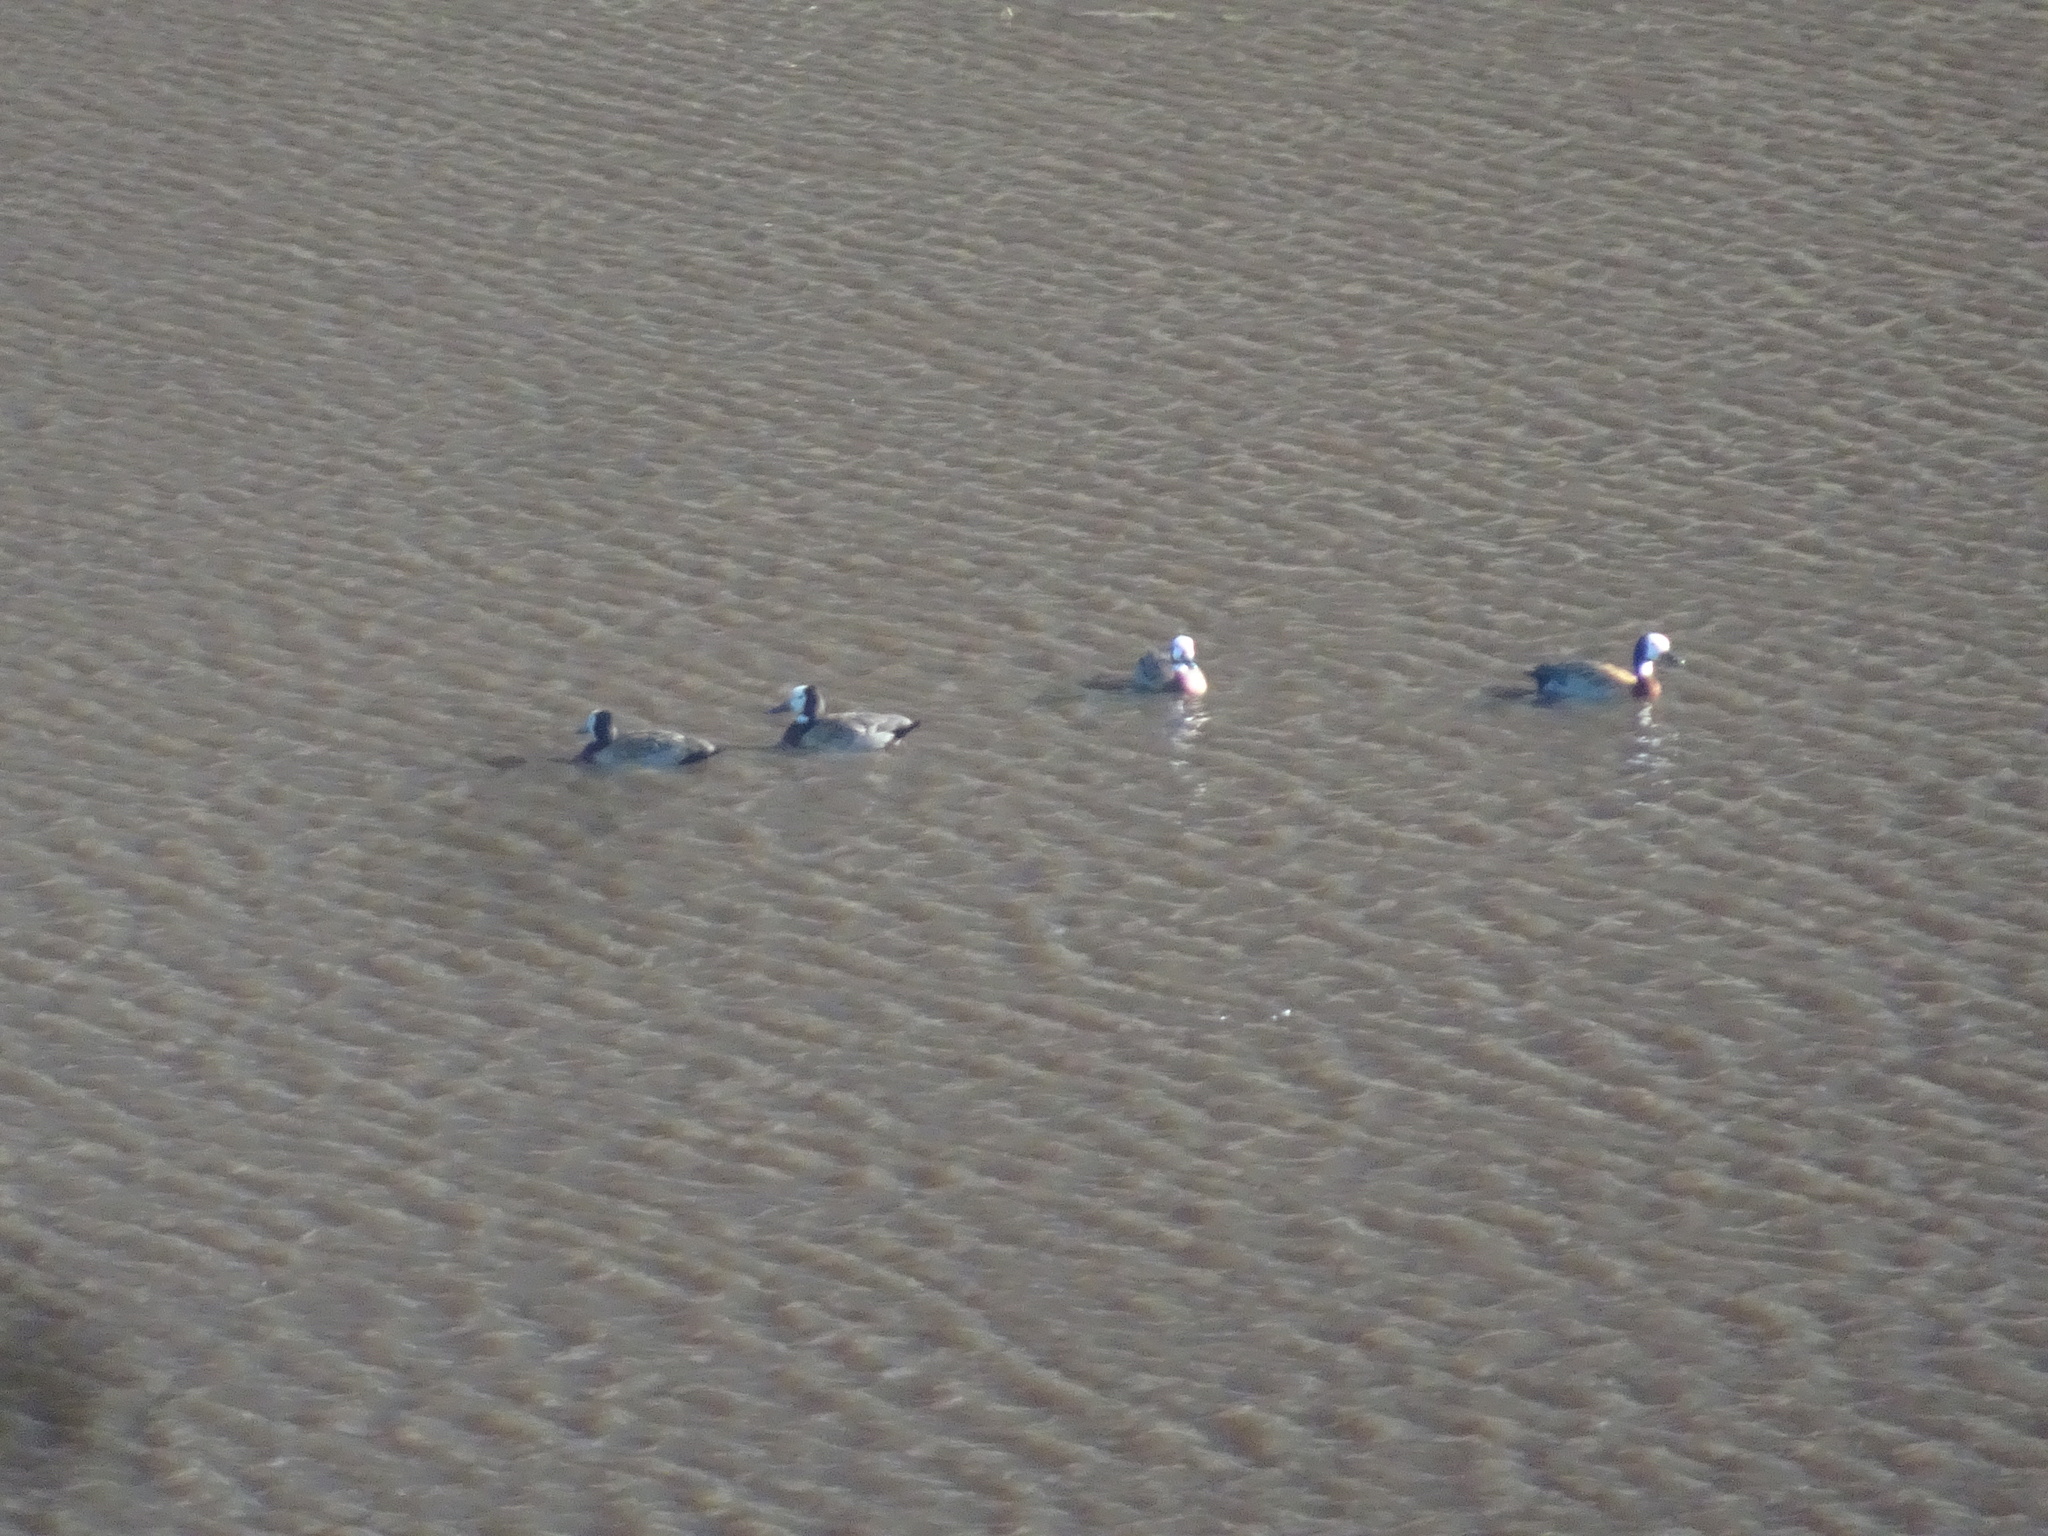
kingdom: Animalia
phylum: Chordata
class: Aves
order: Anseriformes
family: Anatidae
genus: Dendrocygna
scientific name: Dendrocygna viduata
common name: White-faced whistling duck
